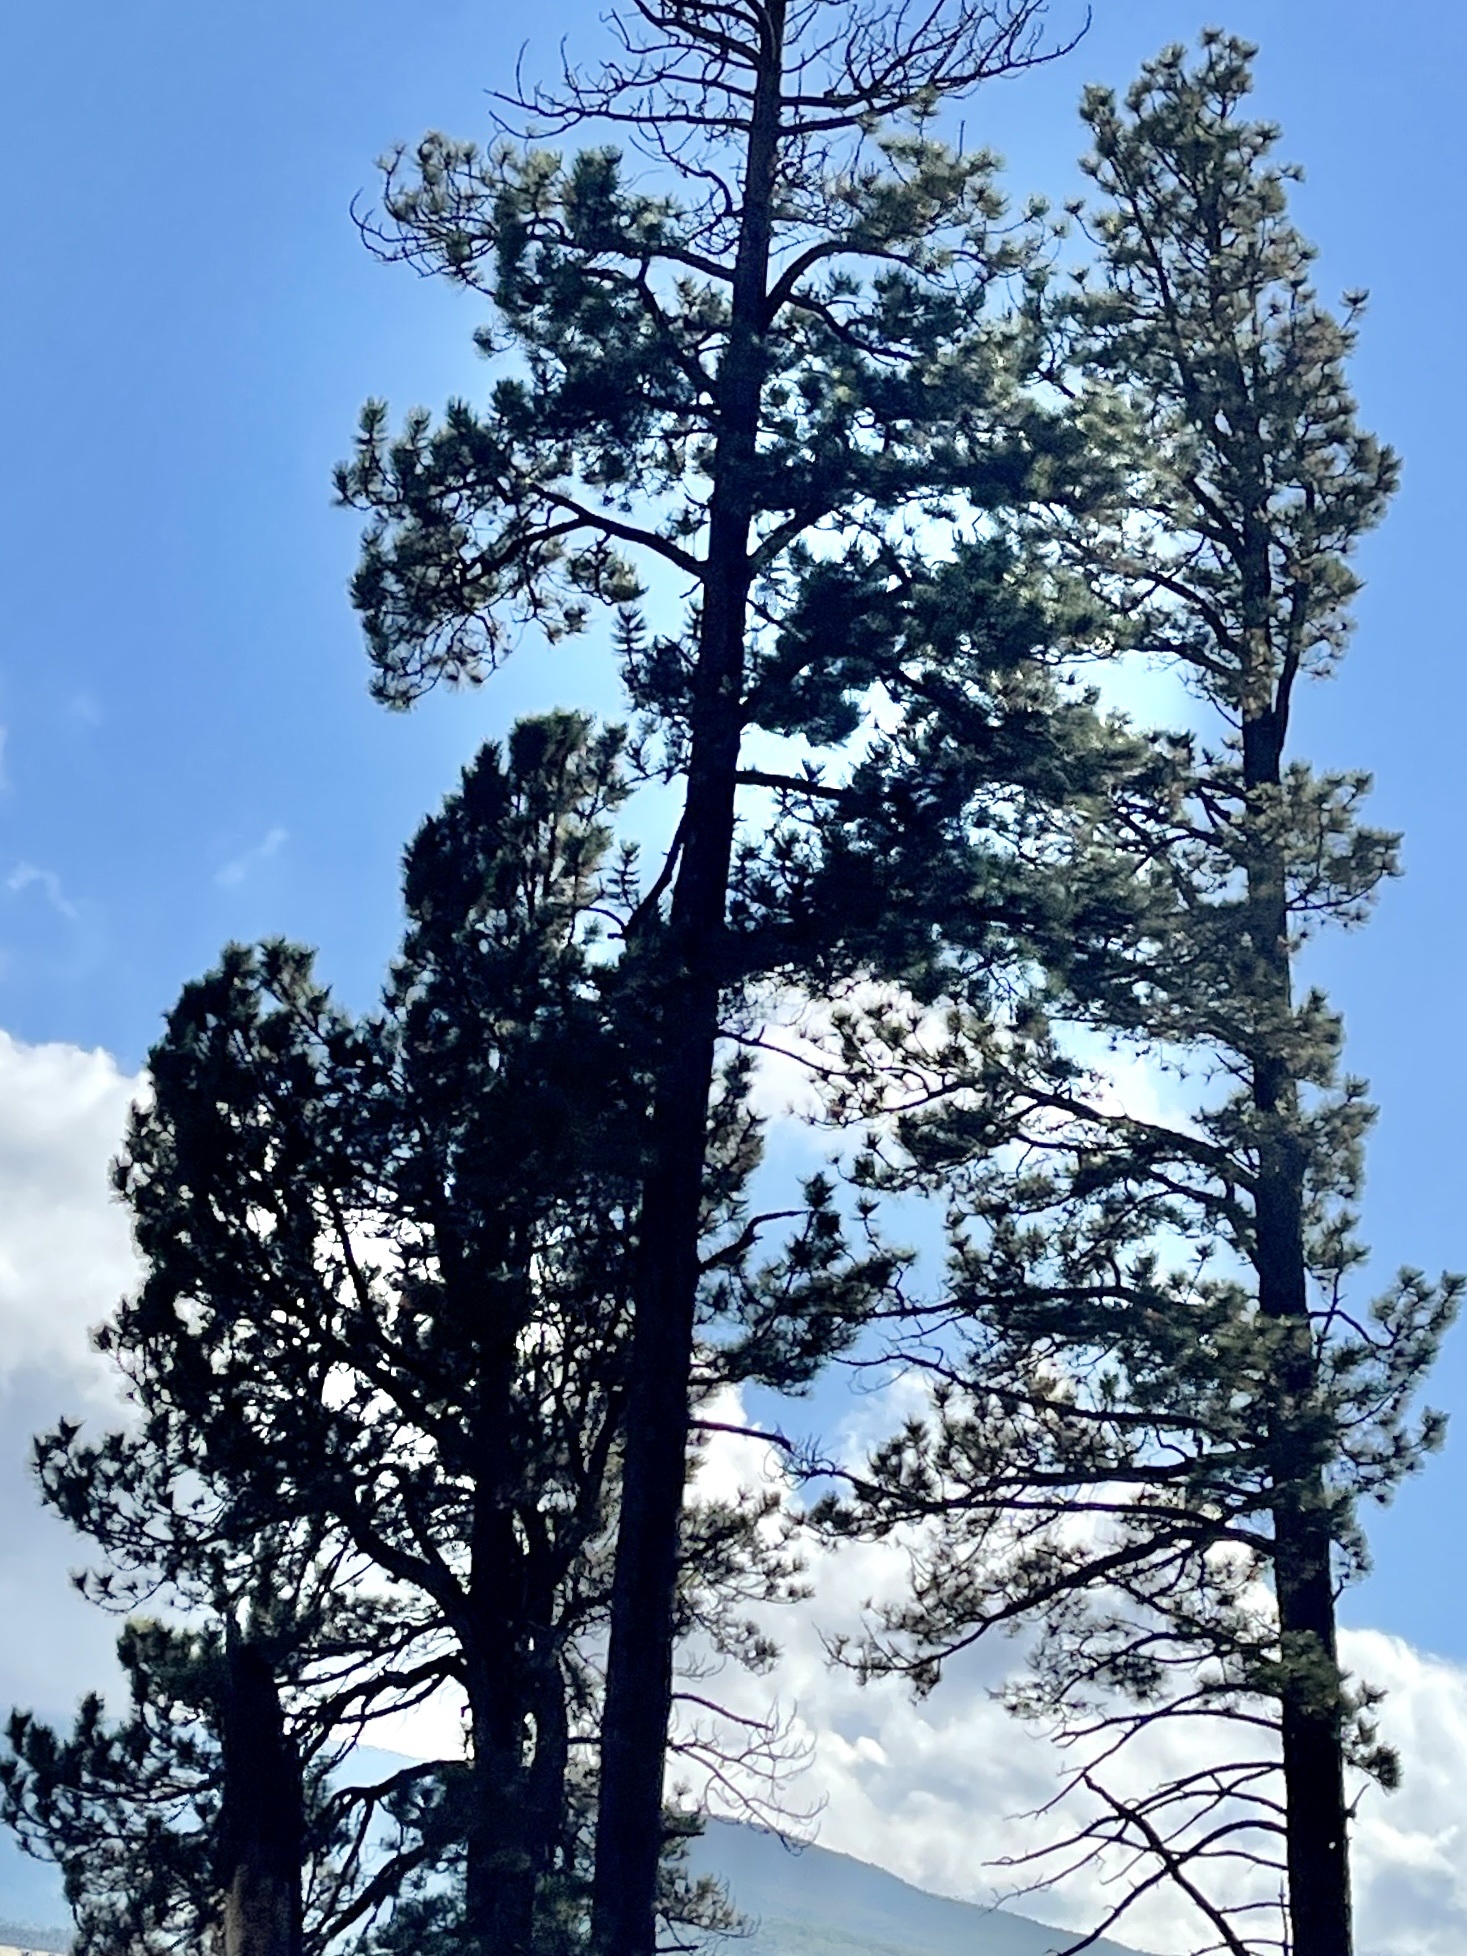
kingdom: Plantae
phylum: Tracheophyta
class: Pinopsida
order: Pinales
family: Pinaceae
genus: Pinus
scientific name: Pinus ponderosa
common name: Western yellow-pine
